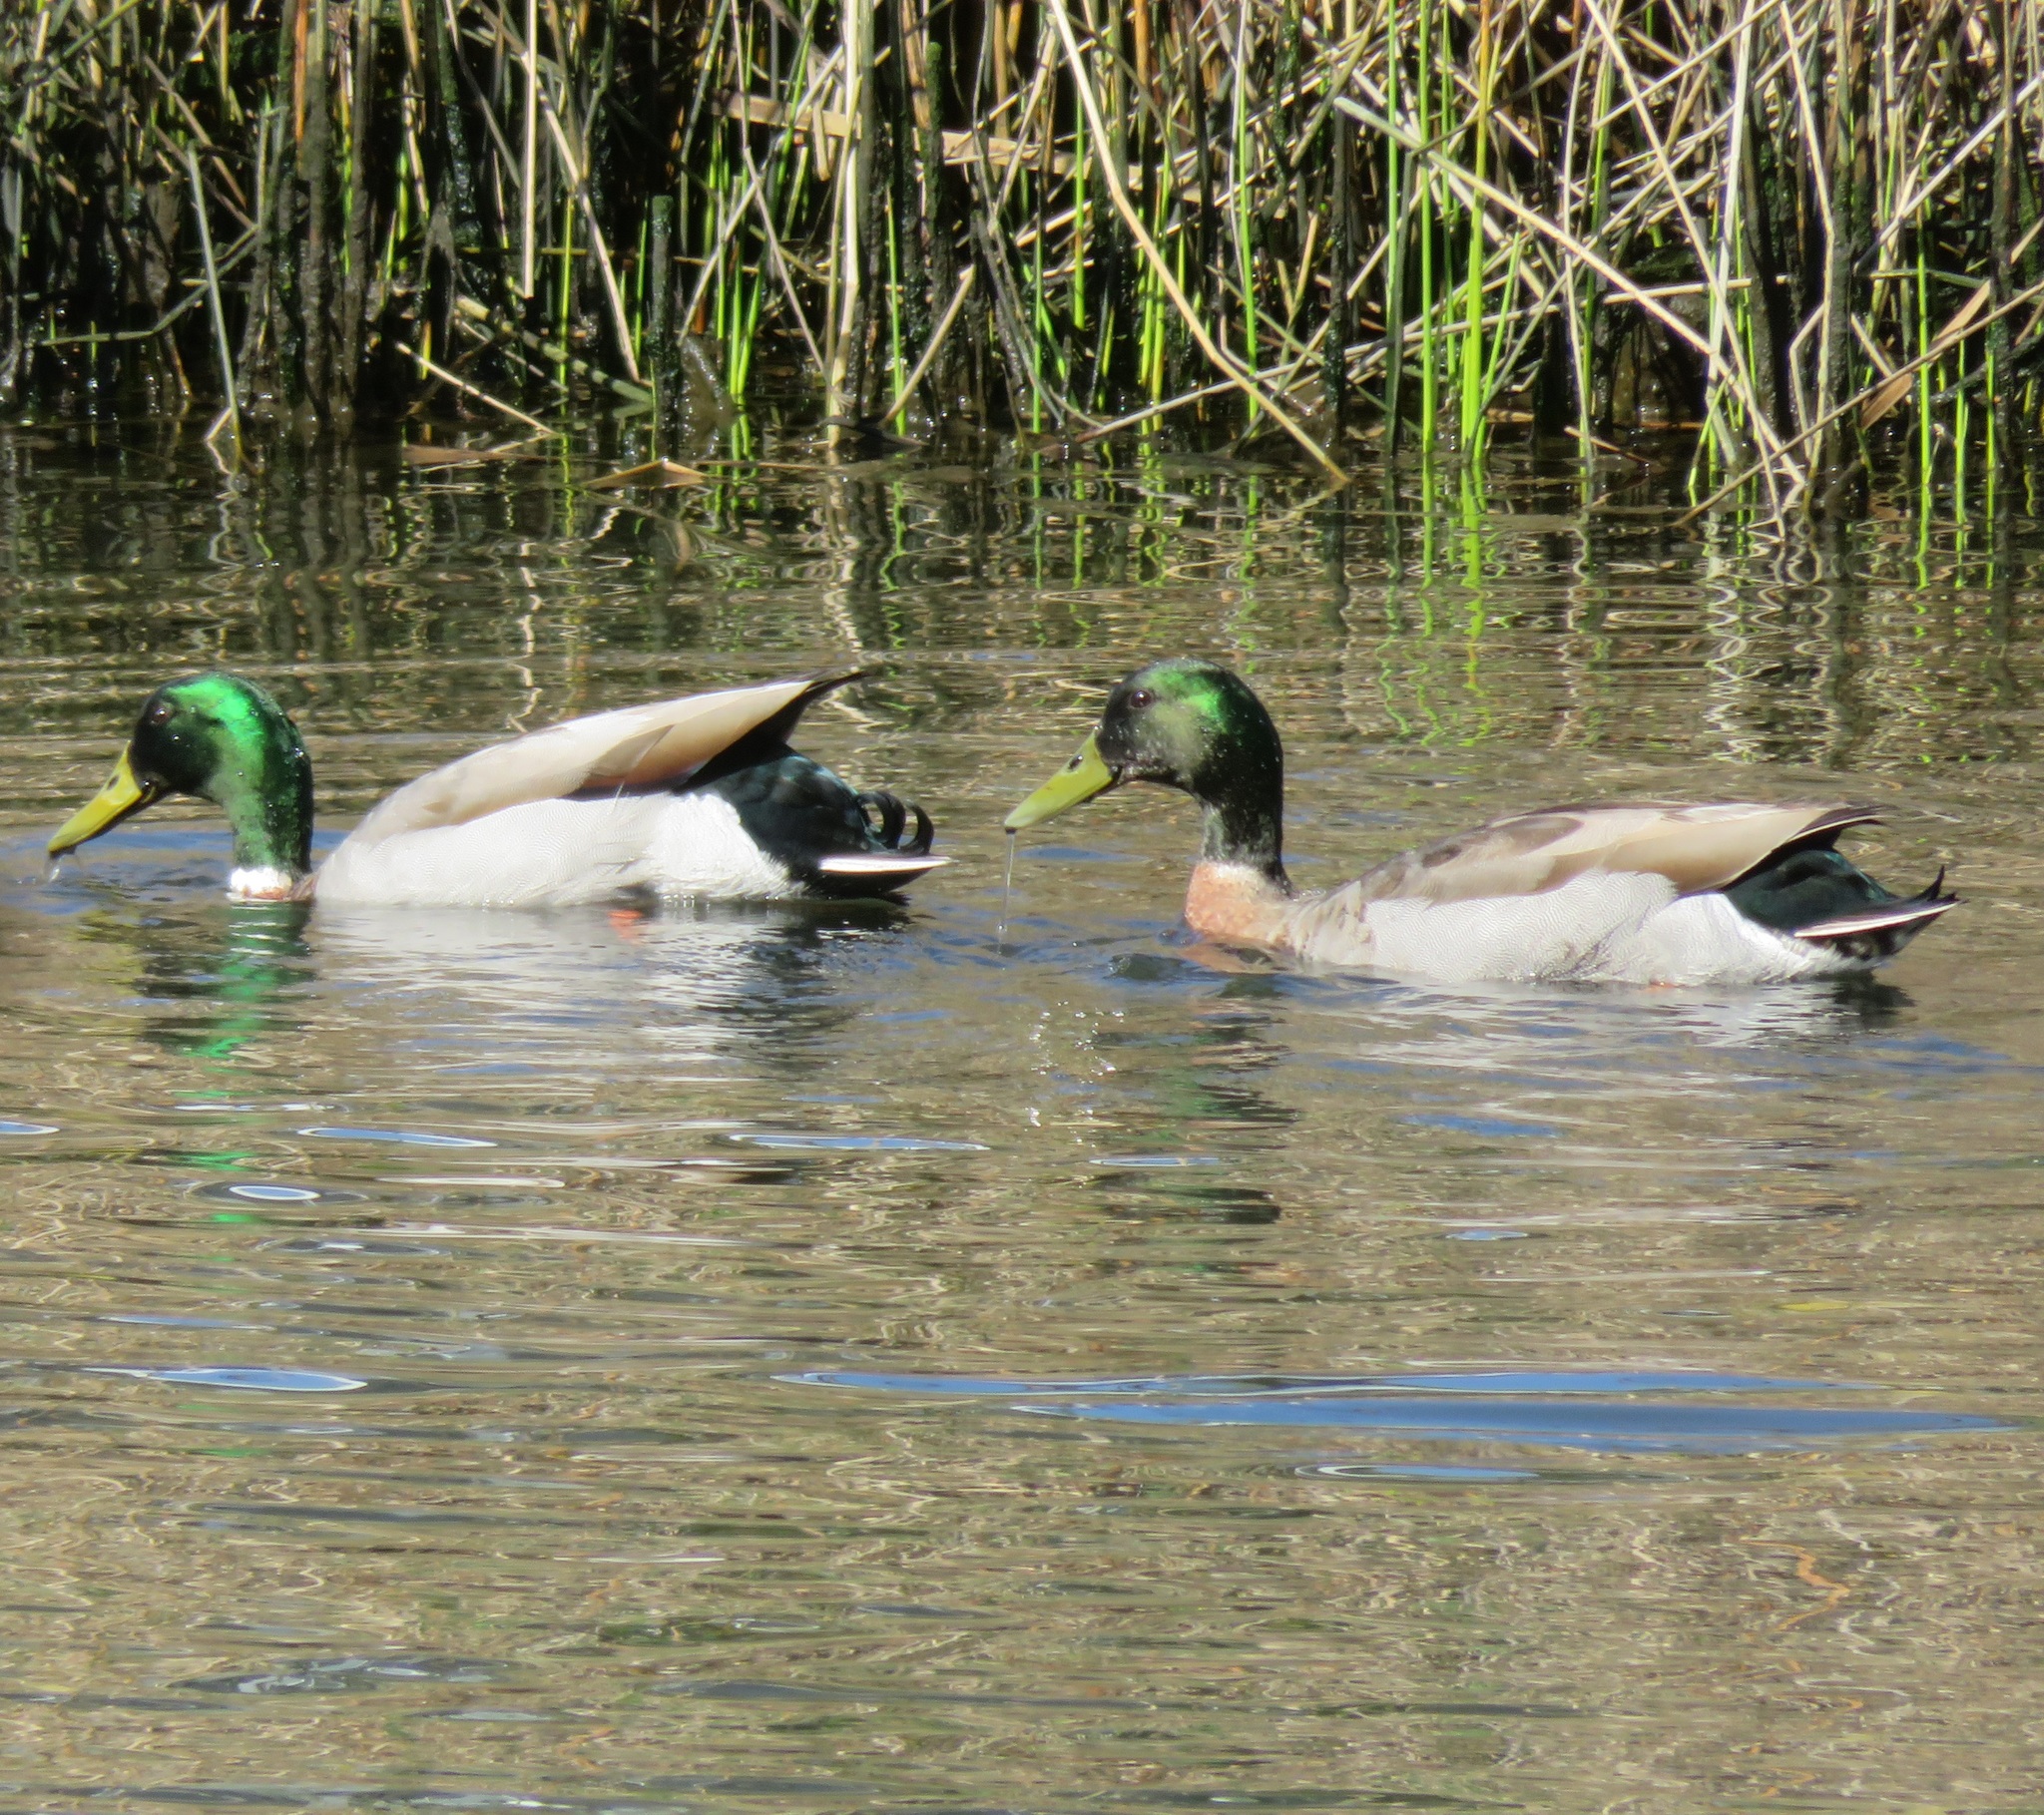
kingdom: Animalia
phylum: Chordata
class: Aves
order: Anseriformes
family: Anatidae
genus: Anas
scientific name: Anas platyrhynchos
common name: Mallard
